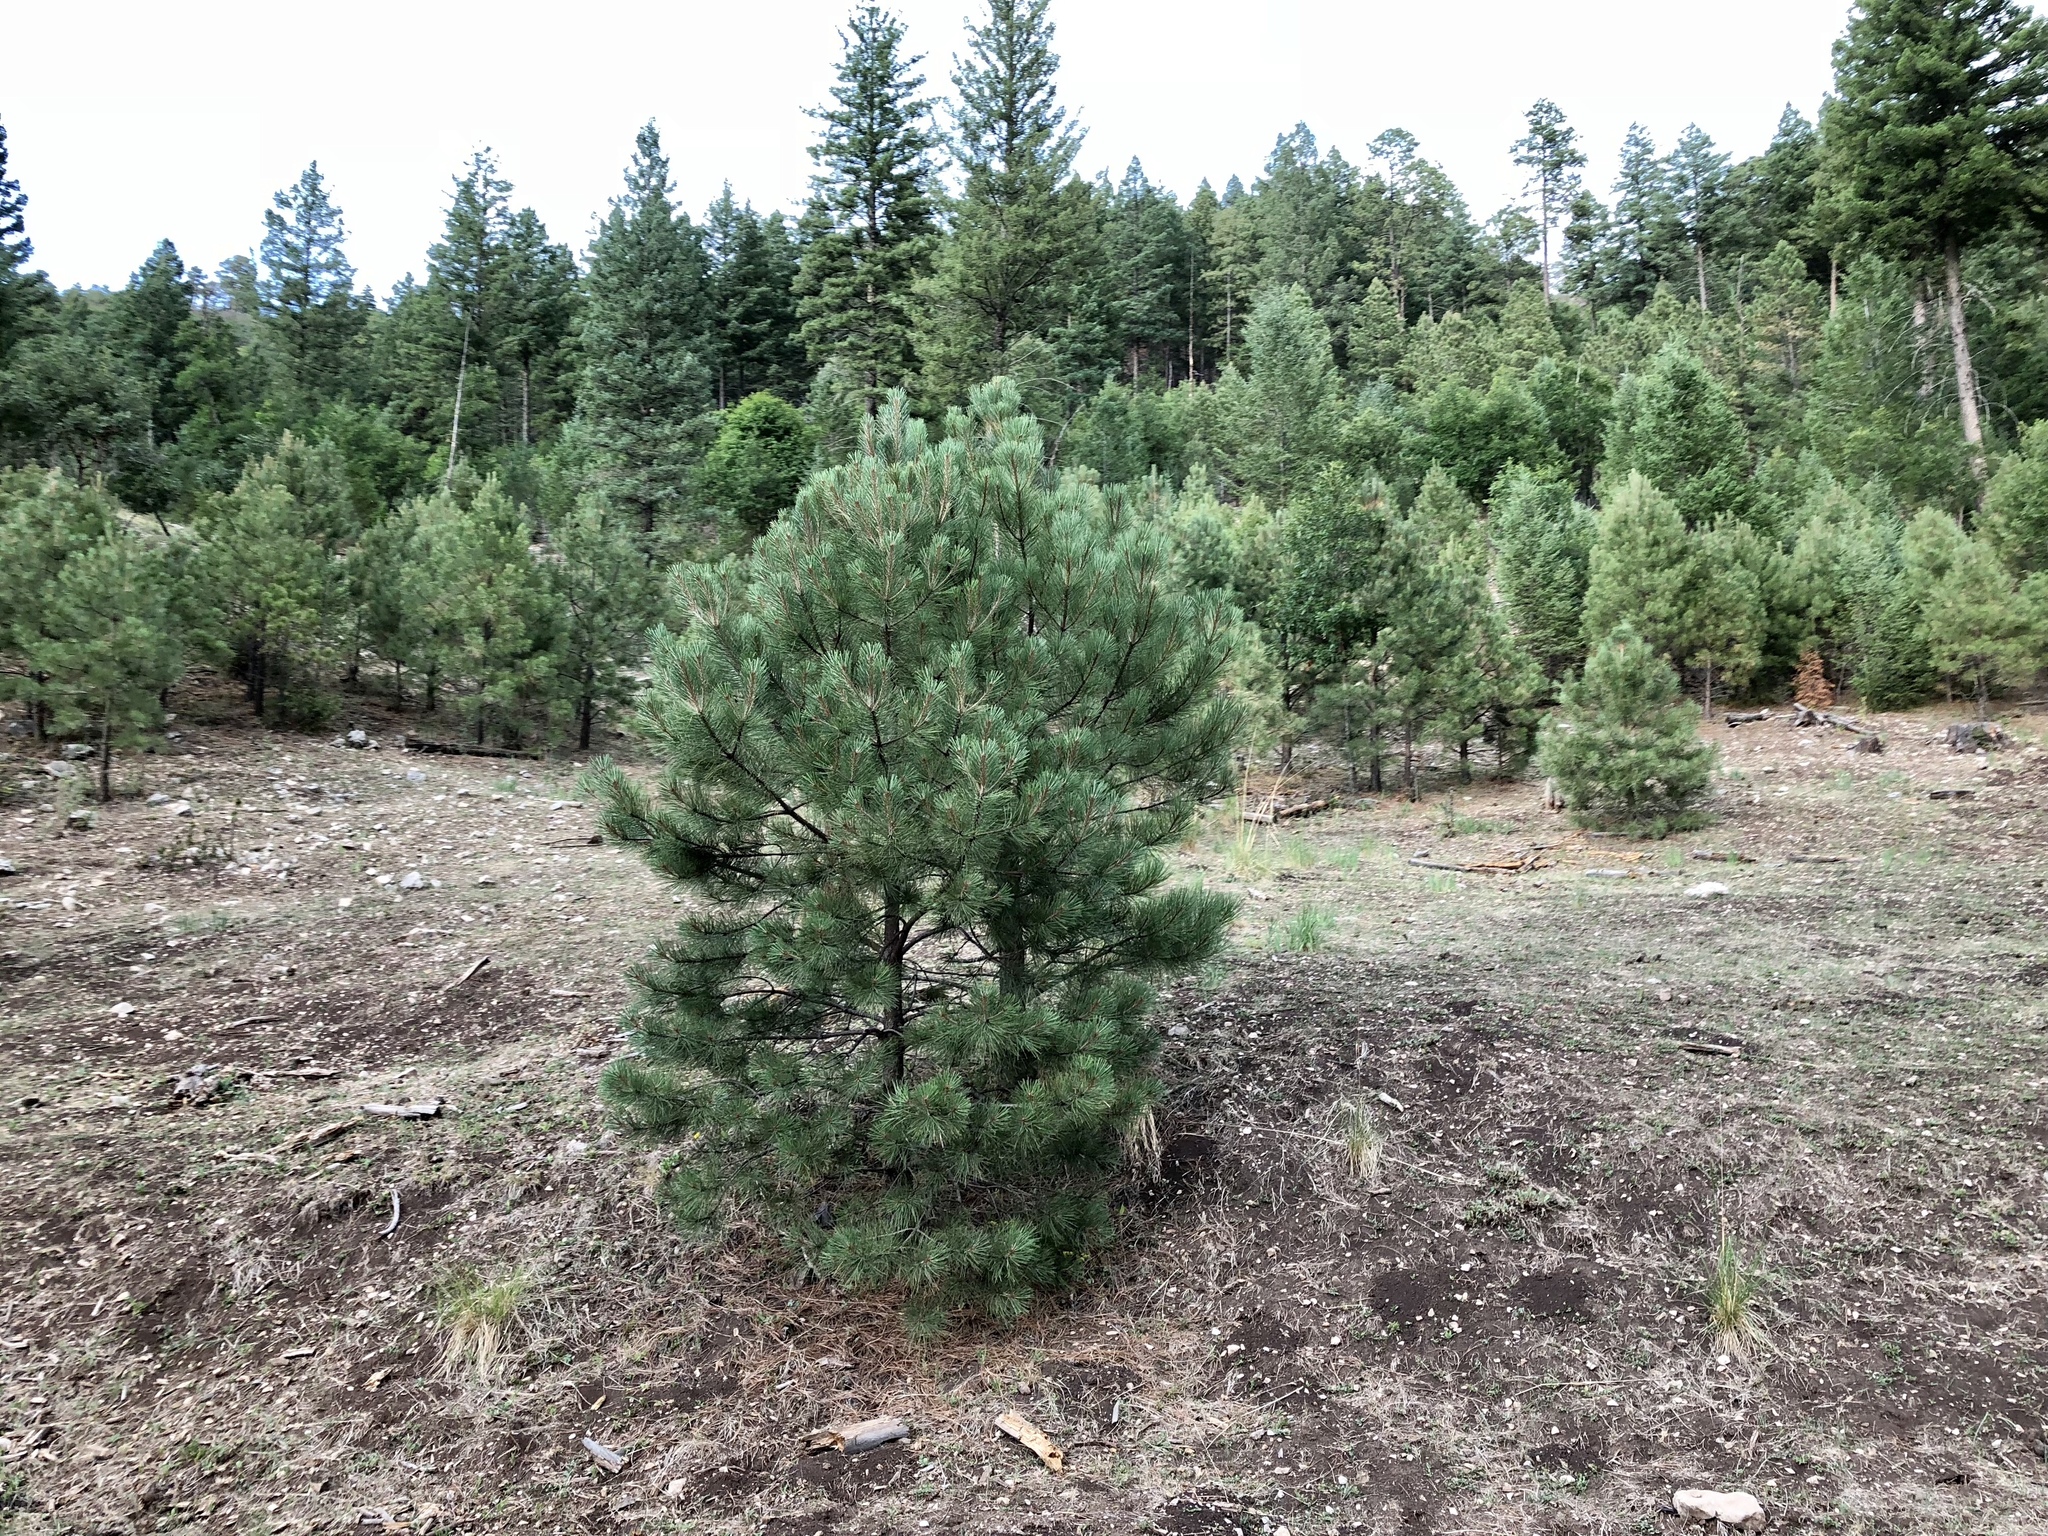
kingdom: Plantae
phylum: Tracheophyta
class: Pinopsida
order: Pinales
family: Pinaceae
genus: Pinus
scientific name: Pinus ponderosa
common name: Western yellow-pine
